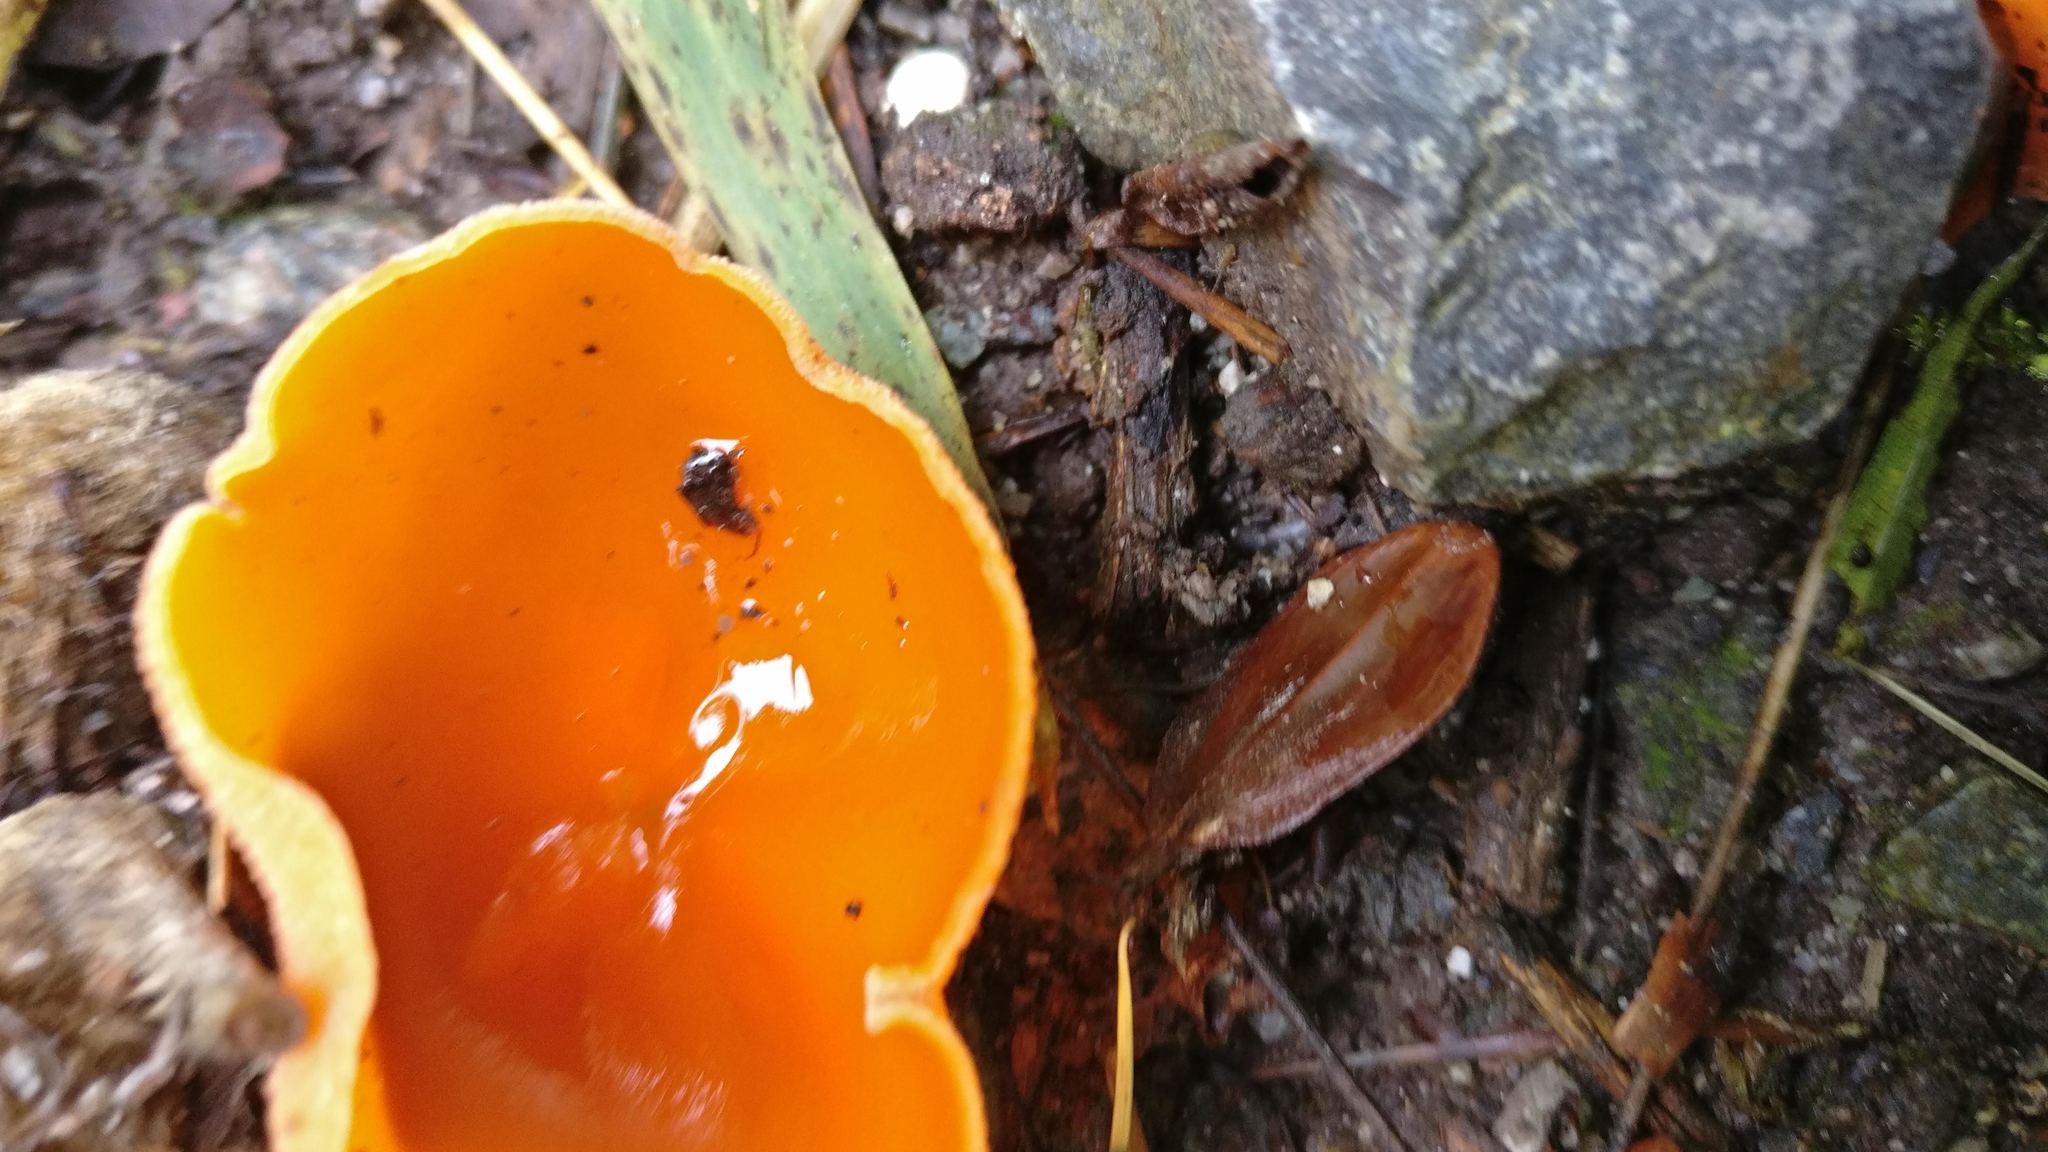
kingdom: Fungi
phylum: Ascomycota
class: Pezizomycetes
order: Pezizales
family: Pyronemataceae
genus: Aleuria
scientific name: Aleuria aurantia
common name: Orange peel fungus
